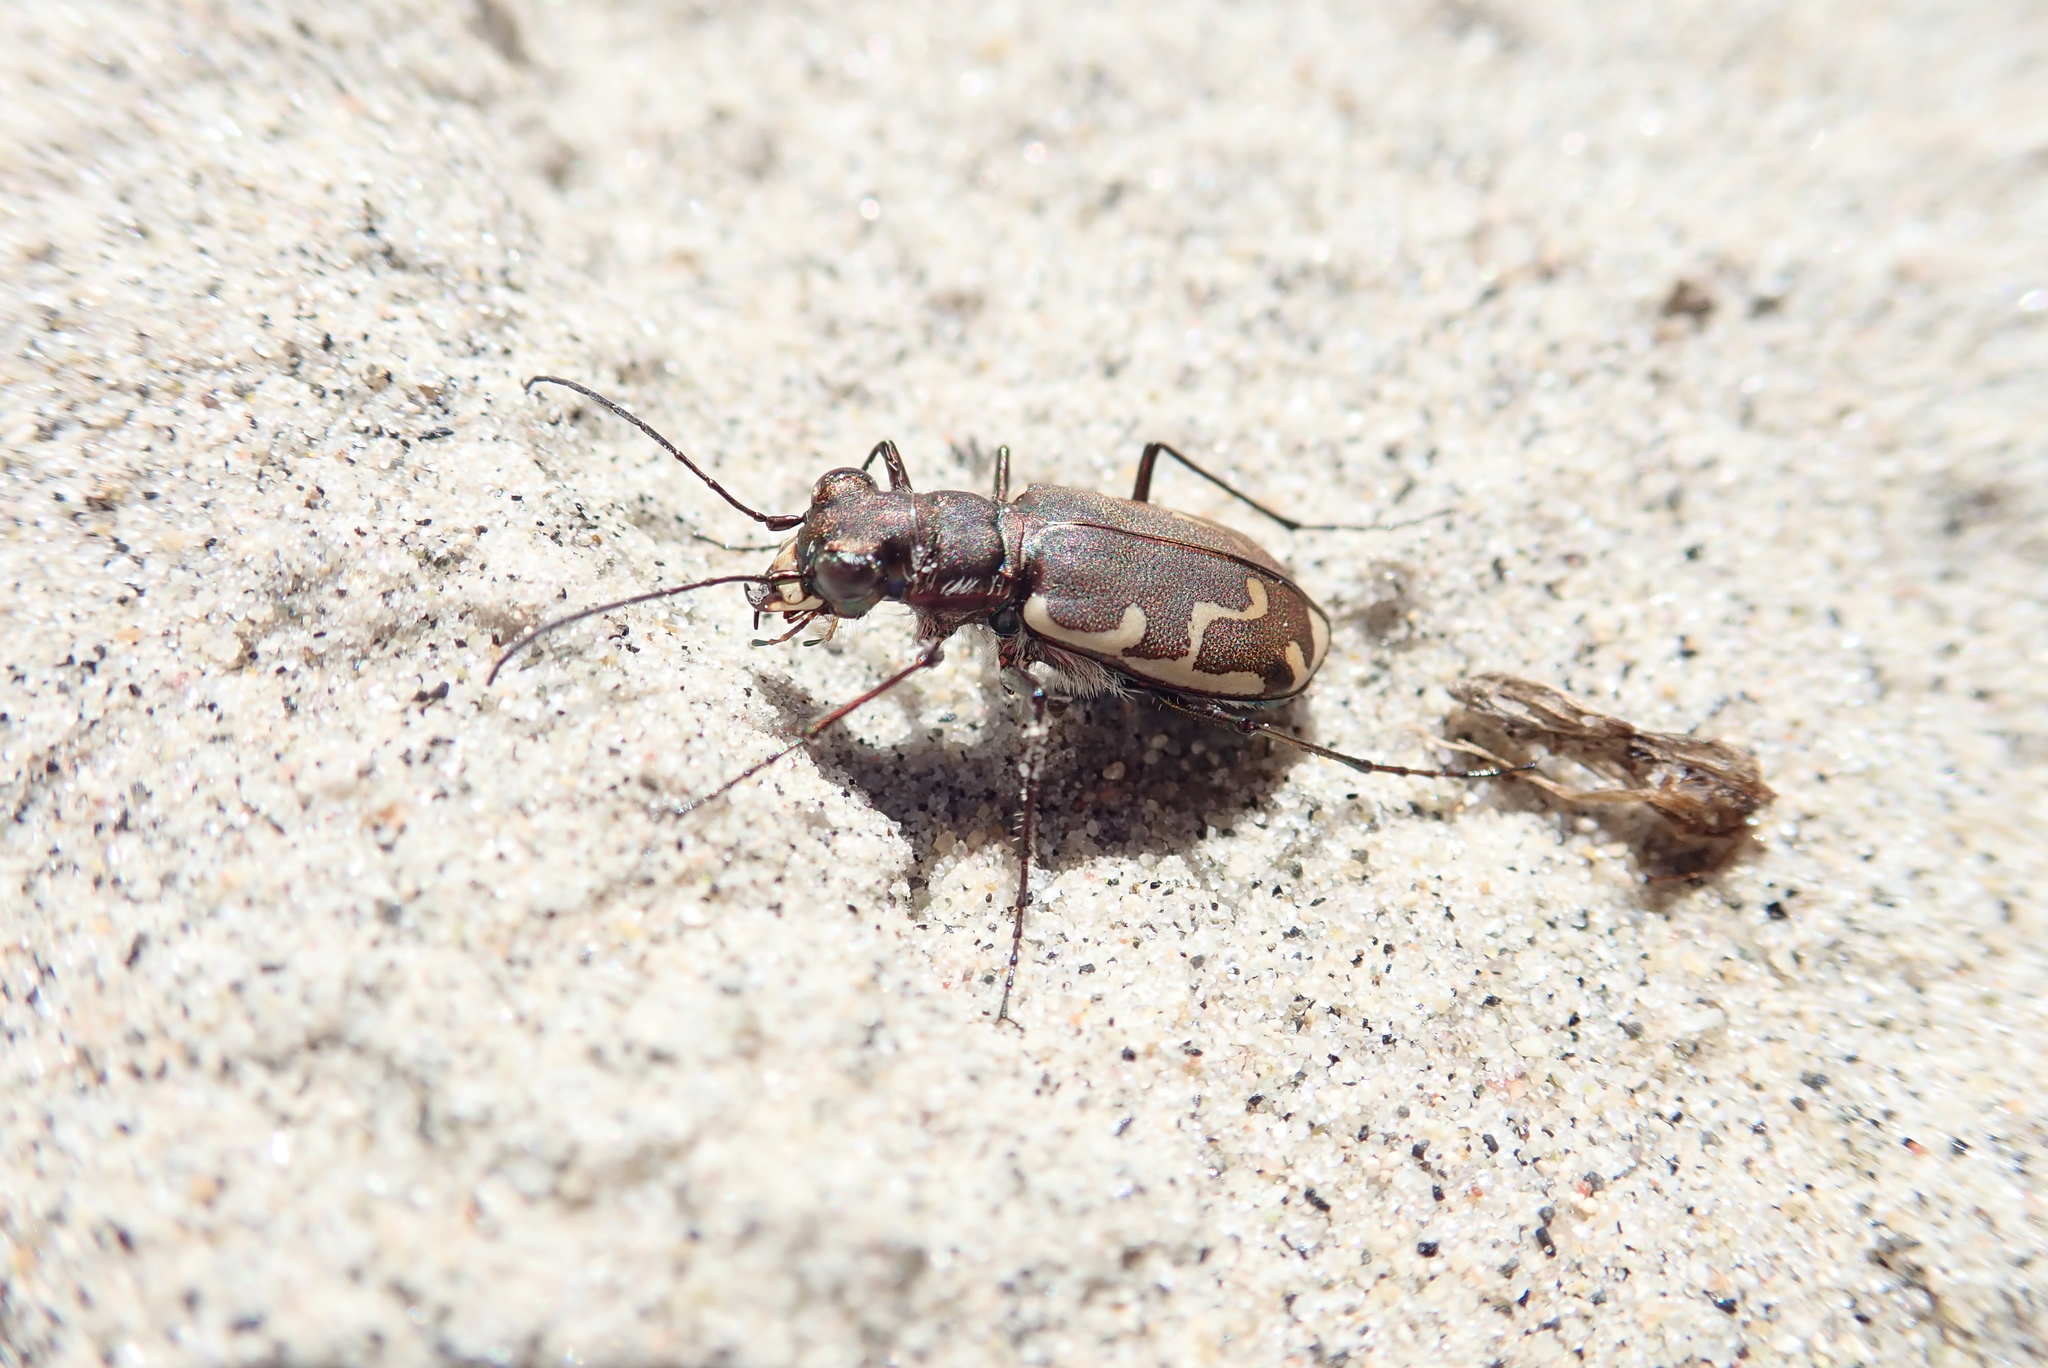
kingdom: Animalia
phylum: Arthropoda
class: Insecta
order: Coleoptera
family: Carabidae
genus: Cicindela
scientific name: Cicindela repanda
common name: Bronzed tiger beetle
